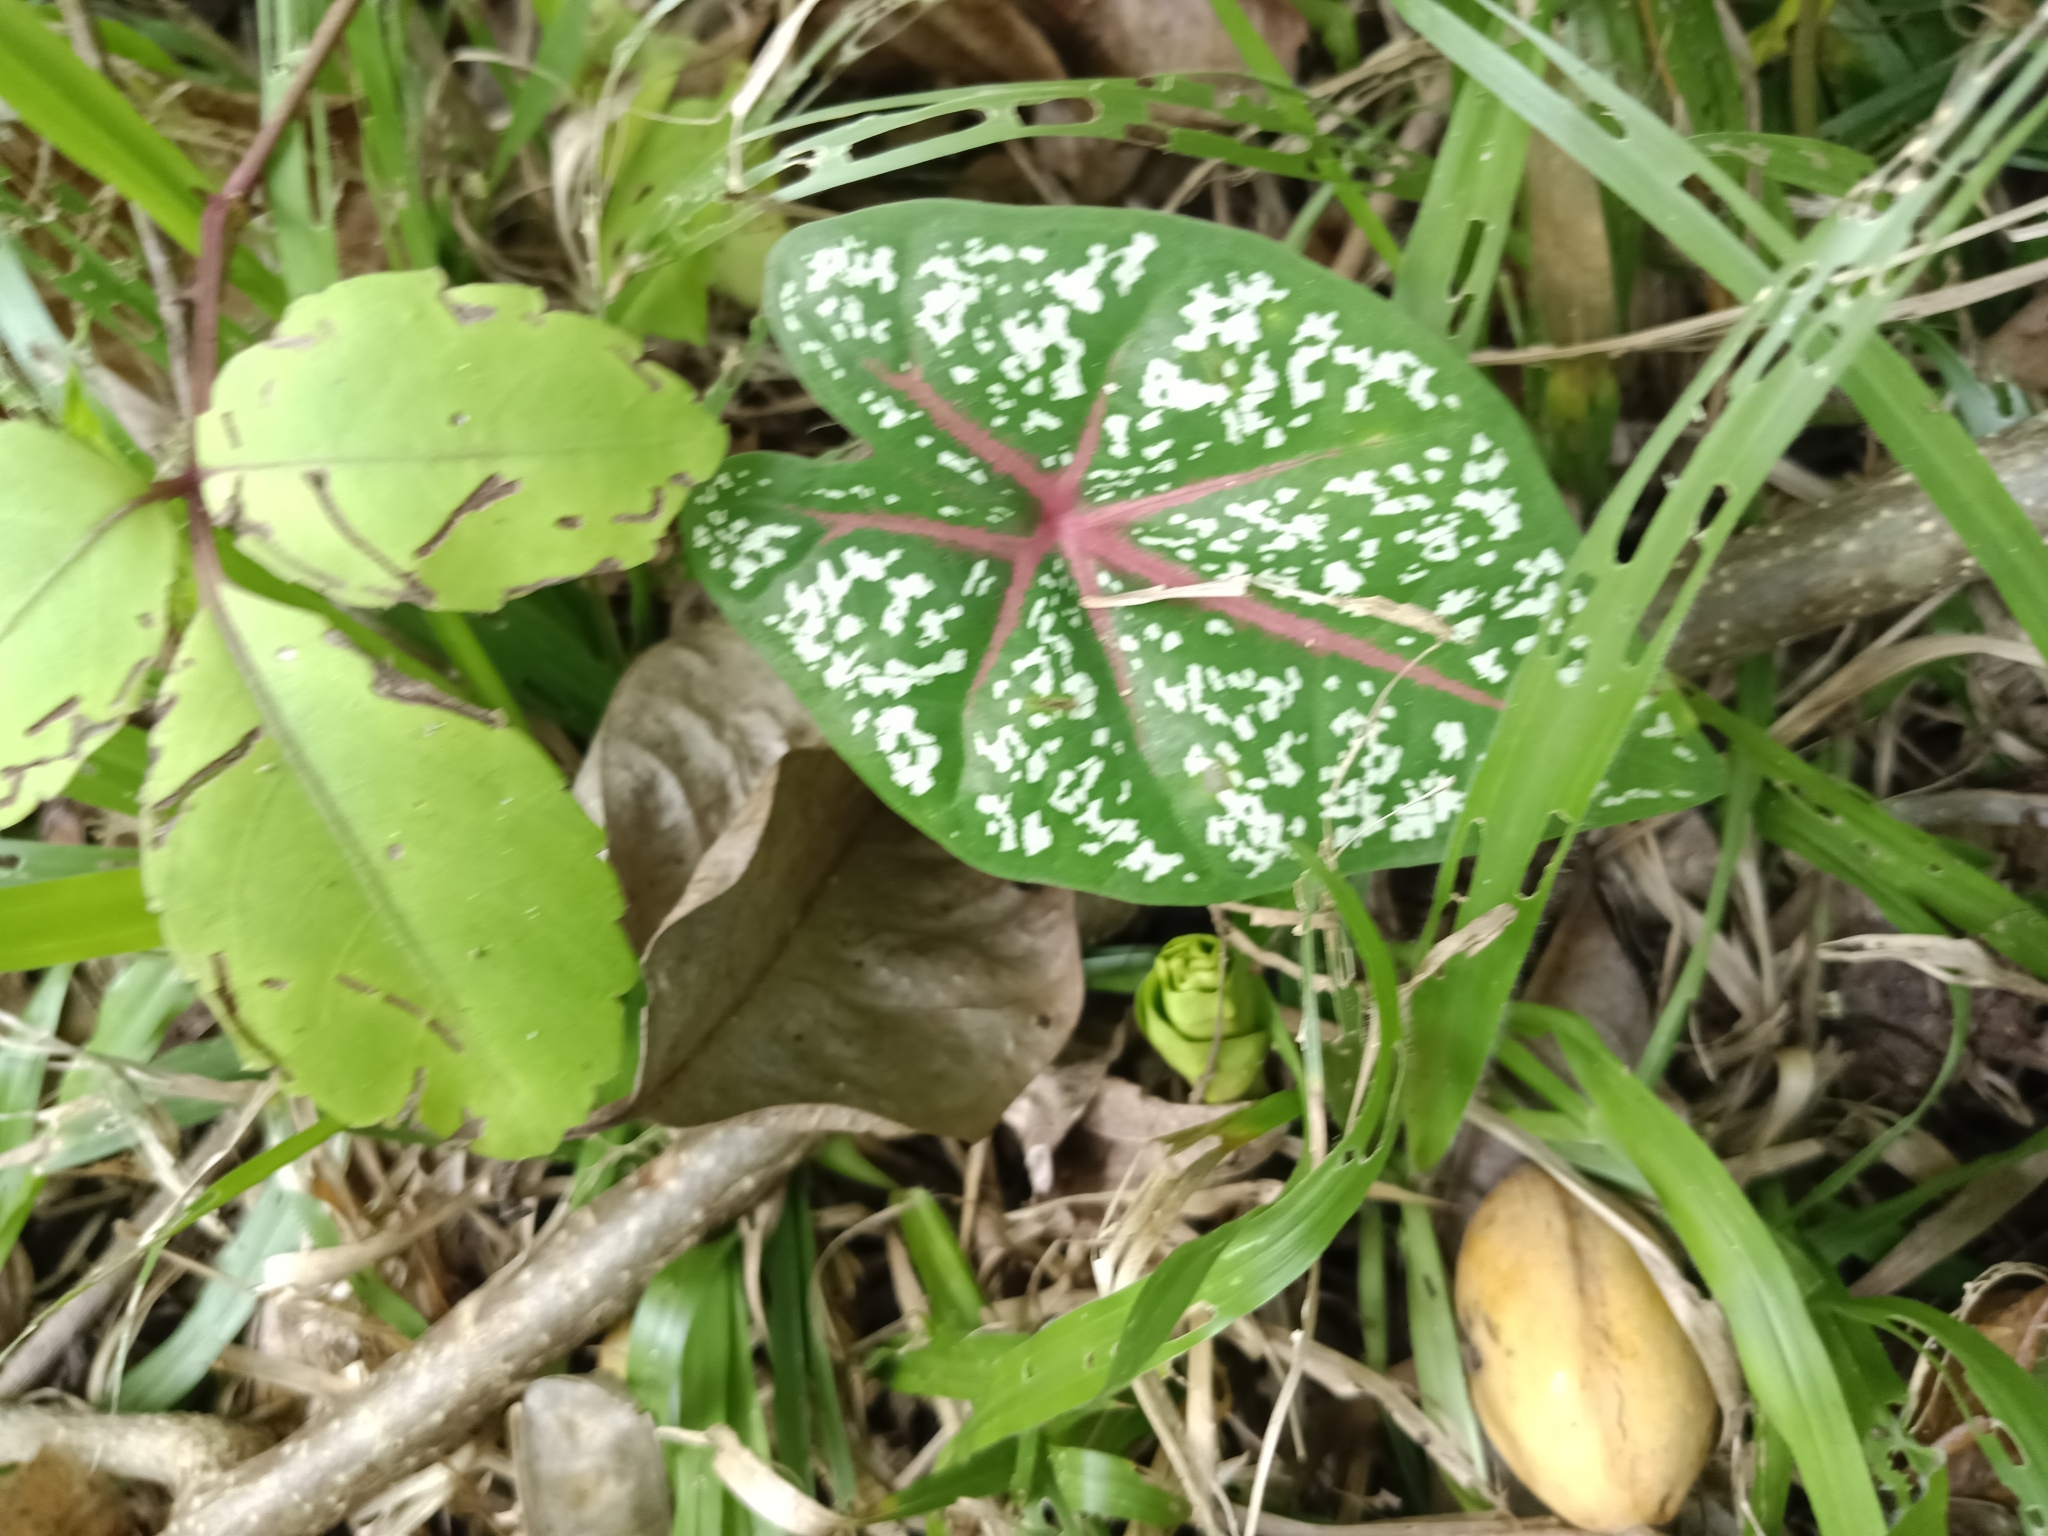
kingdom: Plantae
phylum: Tracheophyta
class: Liliopsida
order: Alismatales
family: Araceae
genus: Caladium
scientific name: Caladium bicolor
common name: Artist's pallet
